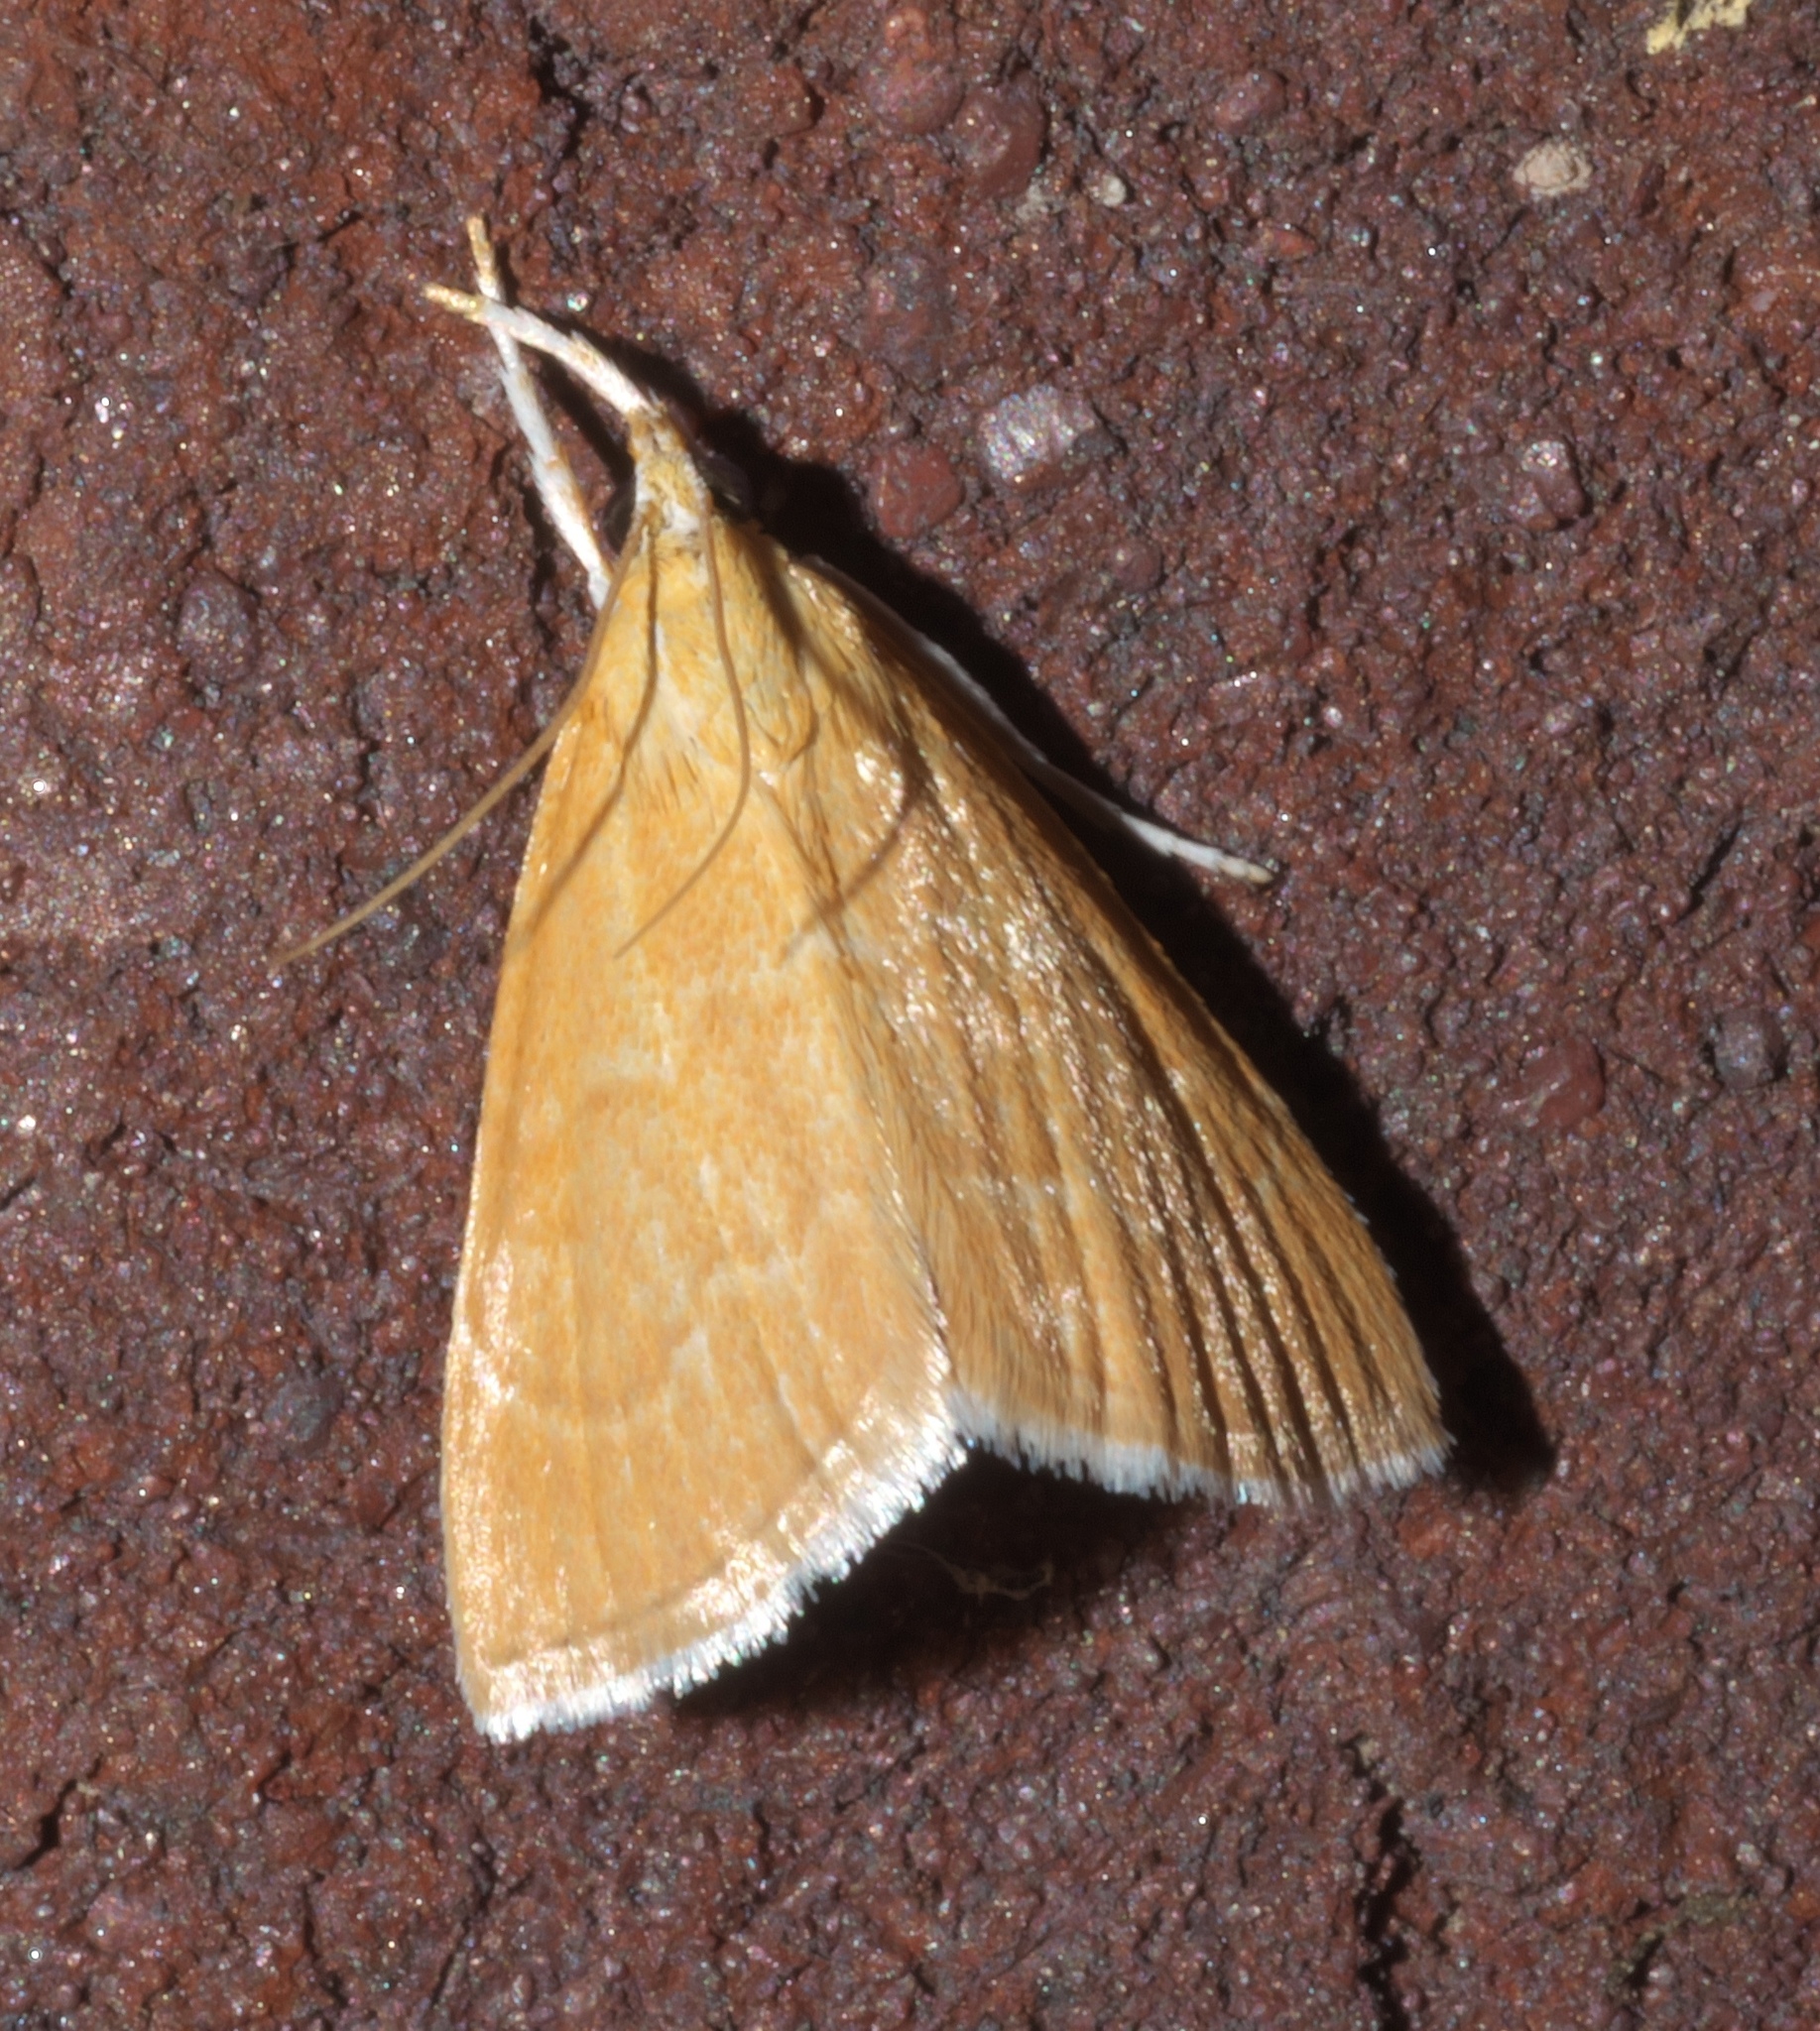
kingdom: Animalia
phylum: Arthropoda
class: Insecta
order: Lepidoptera
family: Crambidae
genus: Glaphyria
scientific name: Glaphyria invisalis
